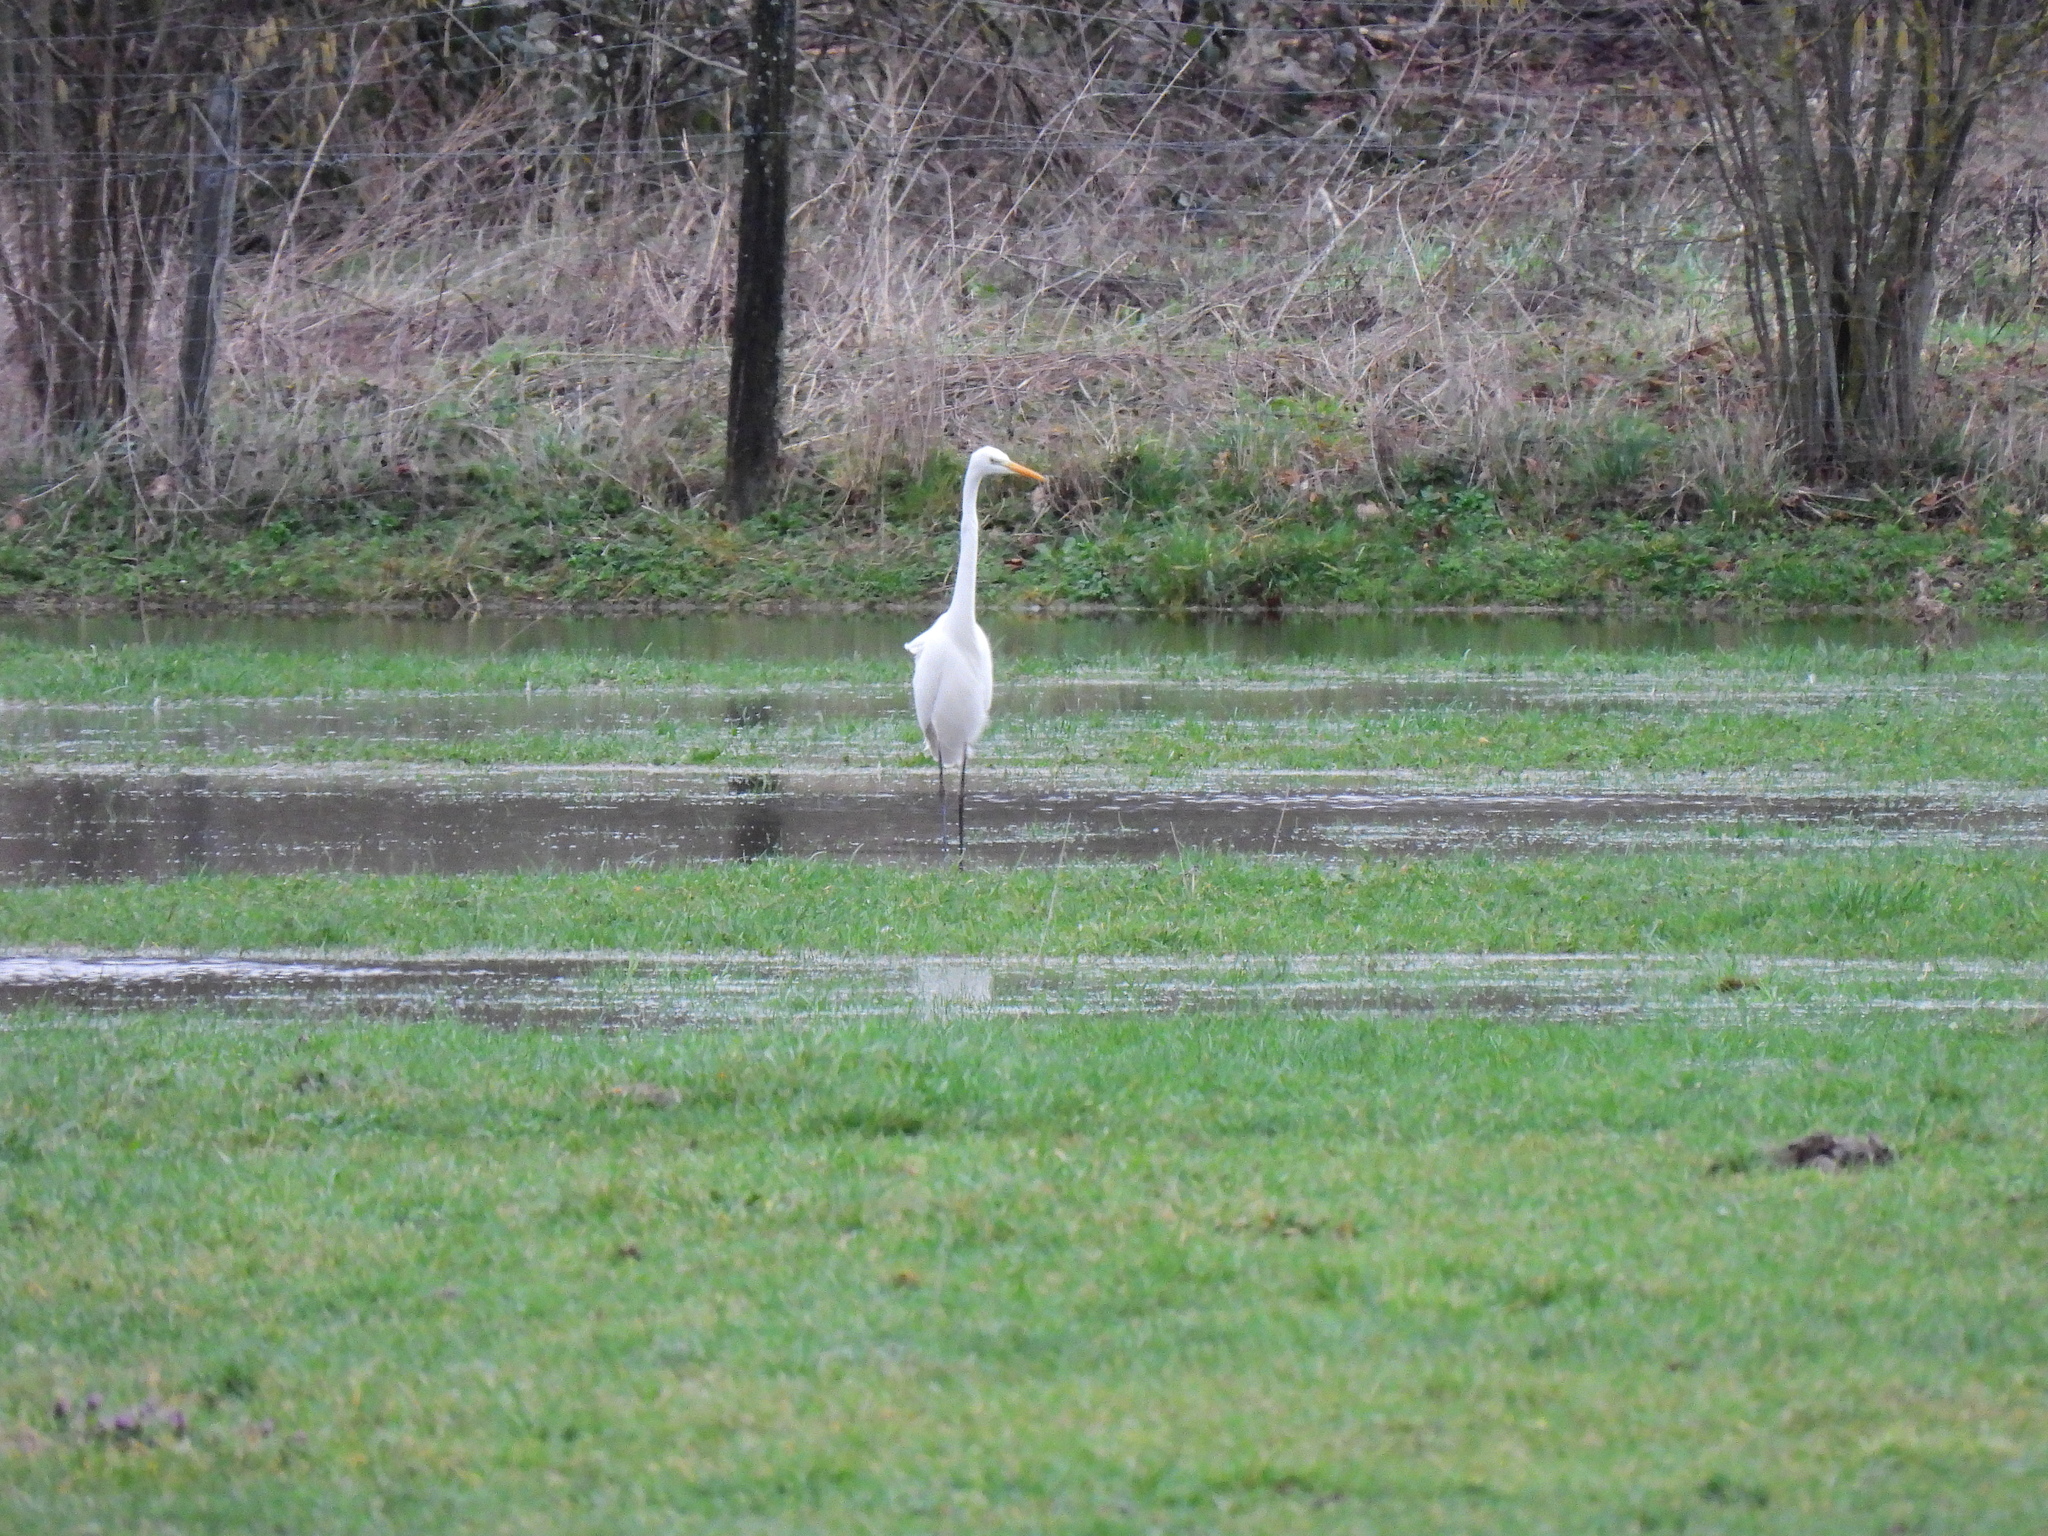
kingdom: Animalia
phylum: Chordata
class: Aves
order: Pelecaniformes
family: Ardeidae
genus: Ardea
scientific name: Ardea alba
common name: Great egret
